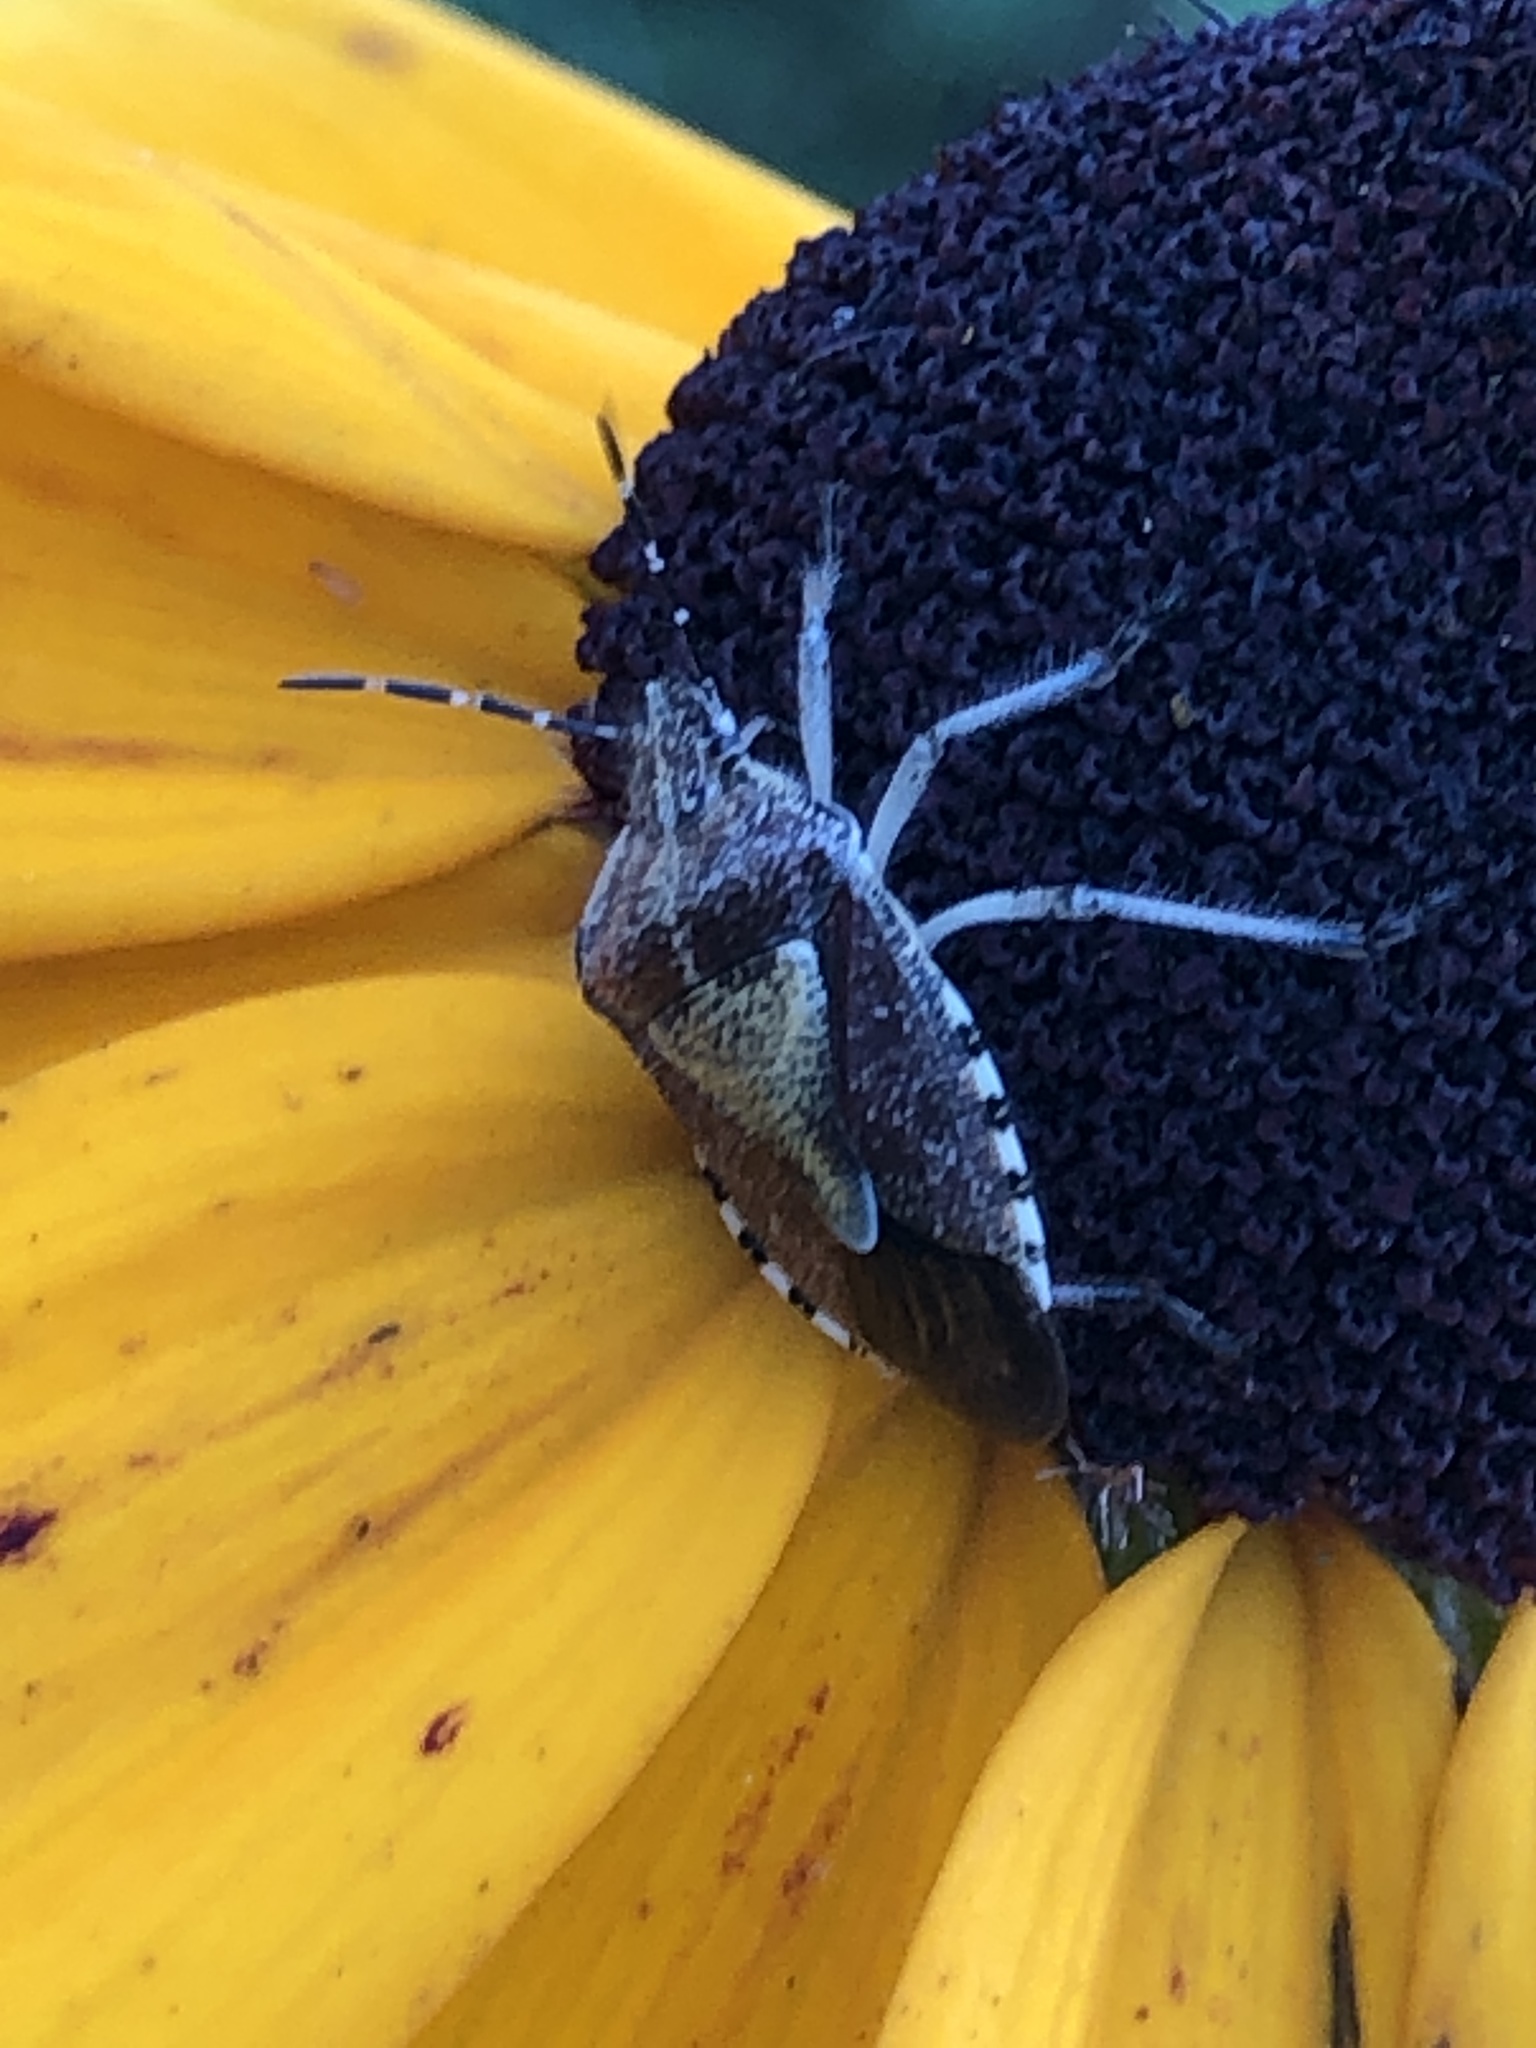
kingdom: Animalia
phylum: Arthropoda
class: Insecta
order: Hemiptera
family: Pentatomidae
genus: Dolycoris
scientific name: Dolycoris baccarum
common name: Sloe bug
